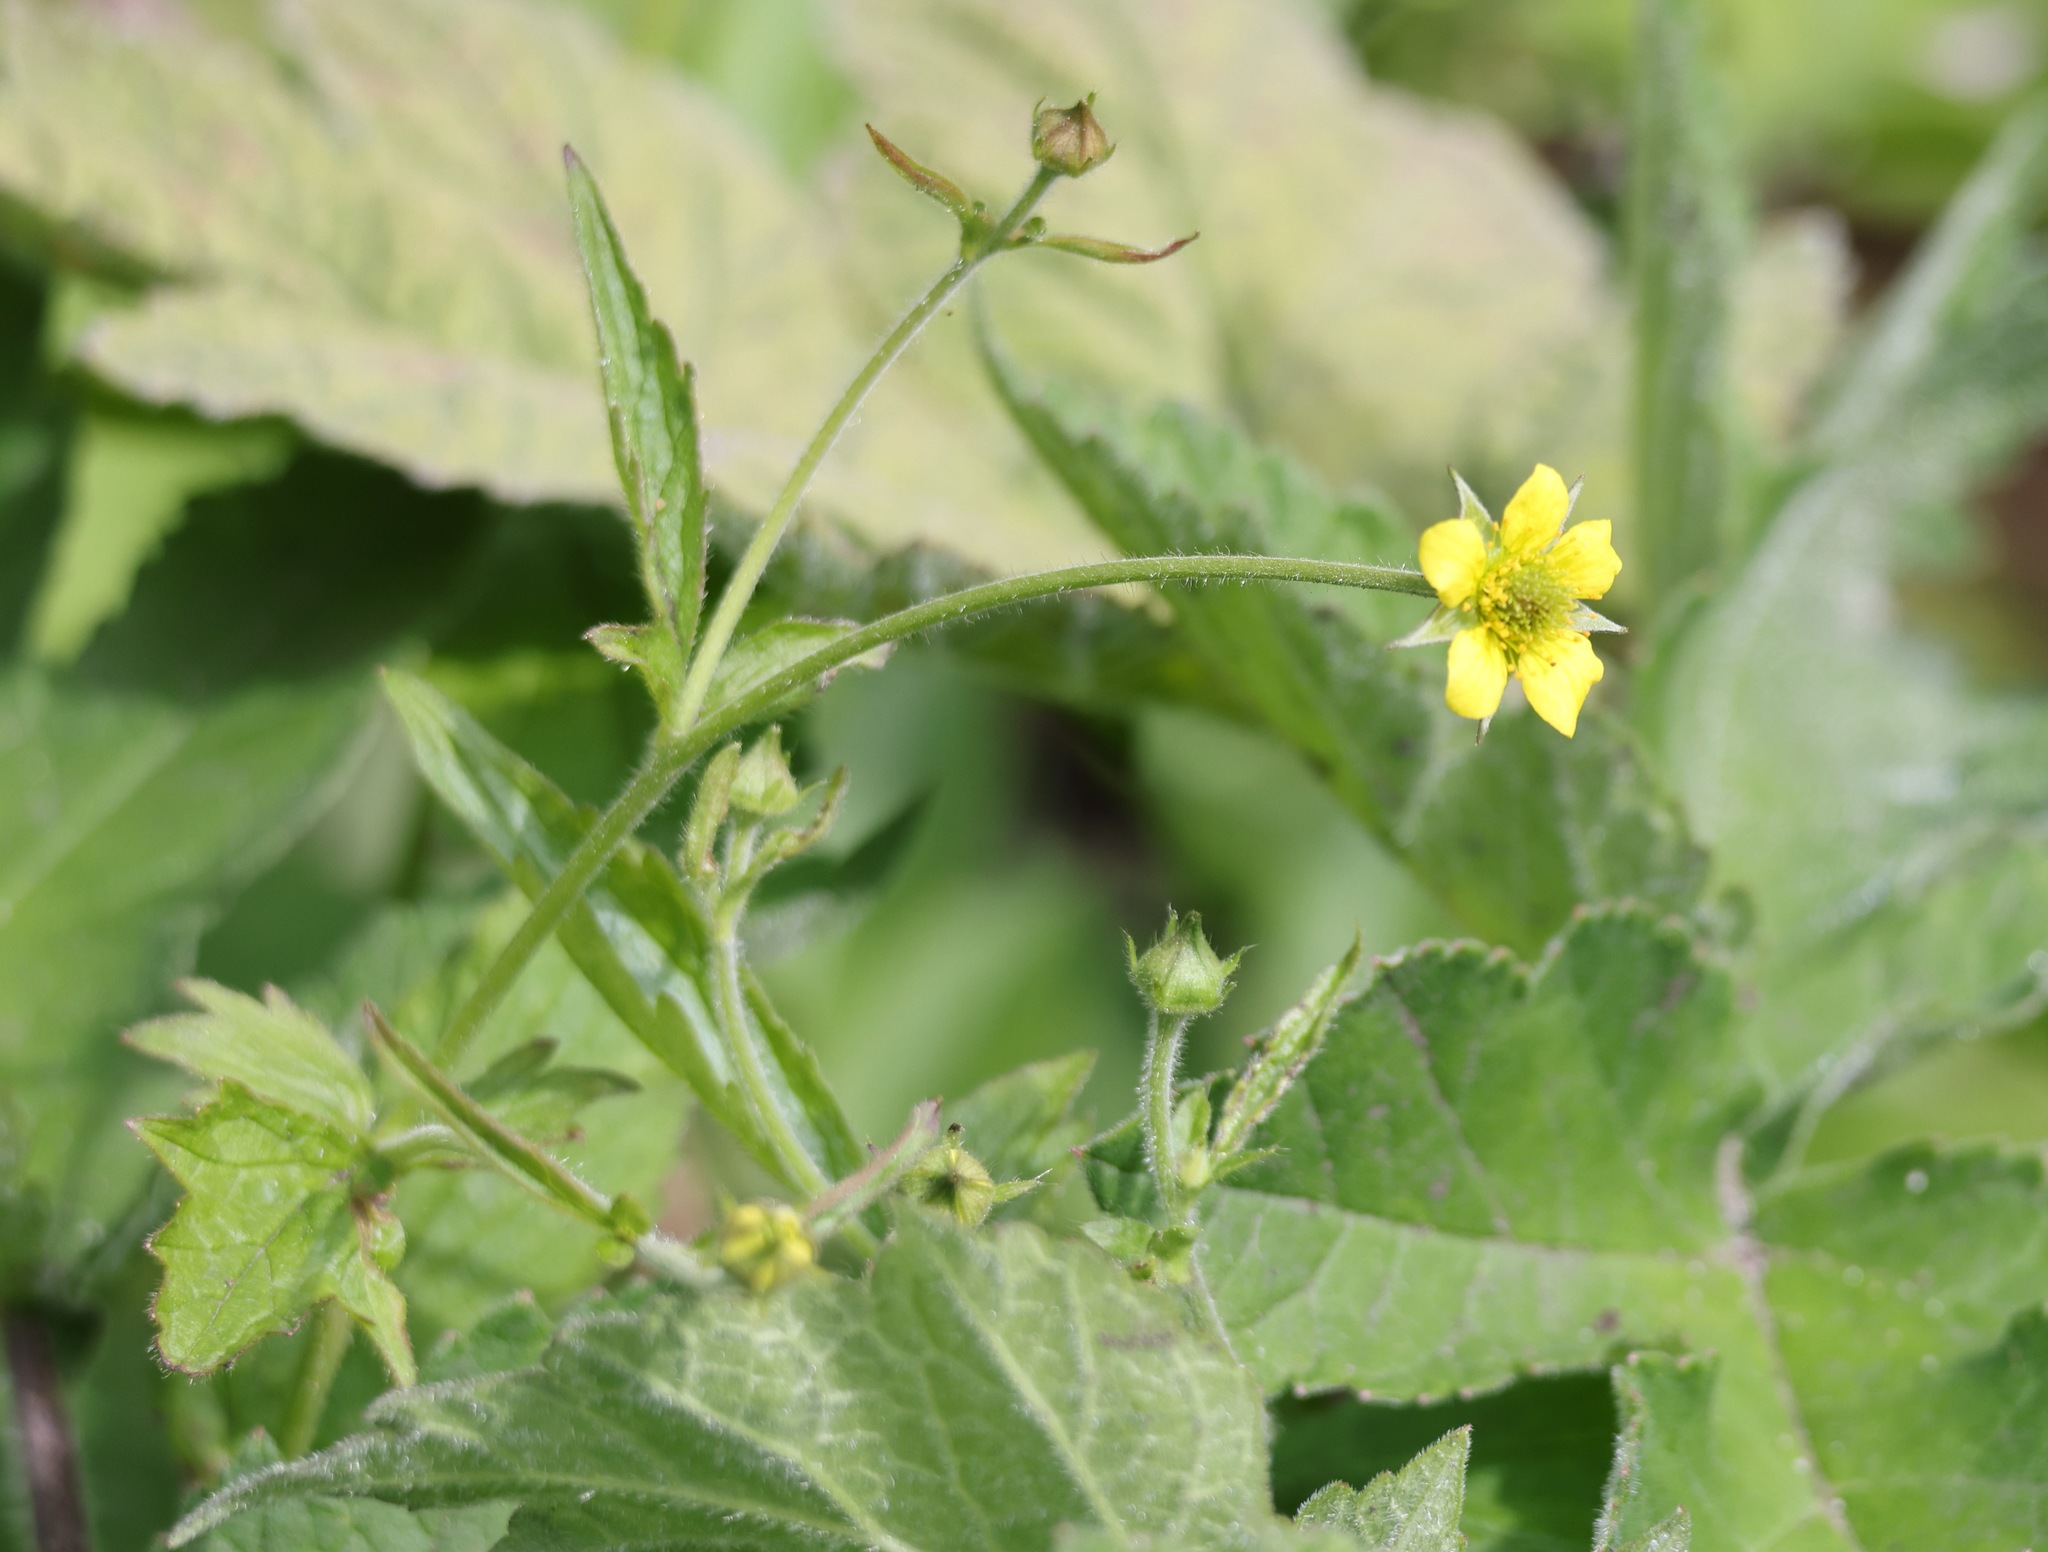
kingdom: Plantae
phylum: Tracheophyta
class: Magnoliopsida
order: Rosales
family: Rosaceae
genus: Geum
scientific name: Geum urbanum
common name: Wood avens
